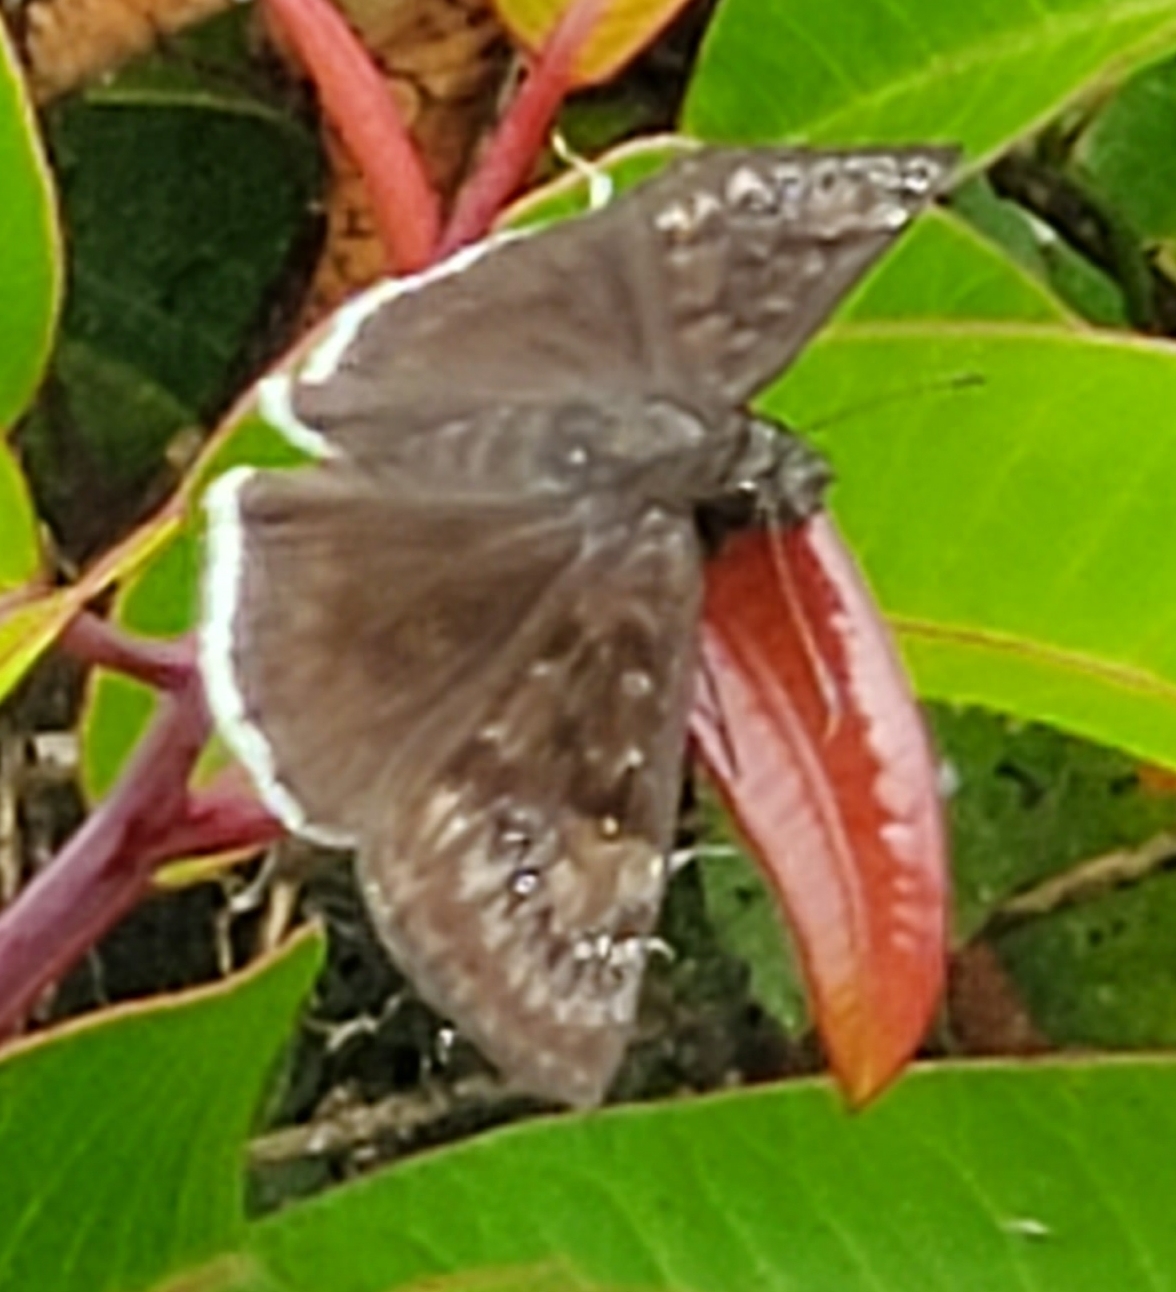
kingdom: Animalia
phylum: Arthropoda
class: Insecta
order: Lepidoptera
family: Hesperiidae
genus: Erynnis
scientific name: Erynnis tristis
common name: Mournful duskywing
